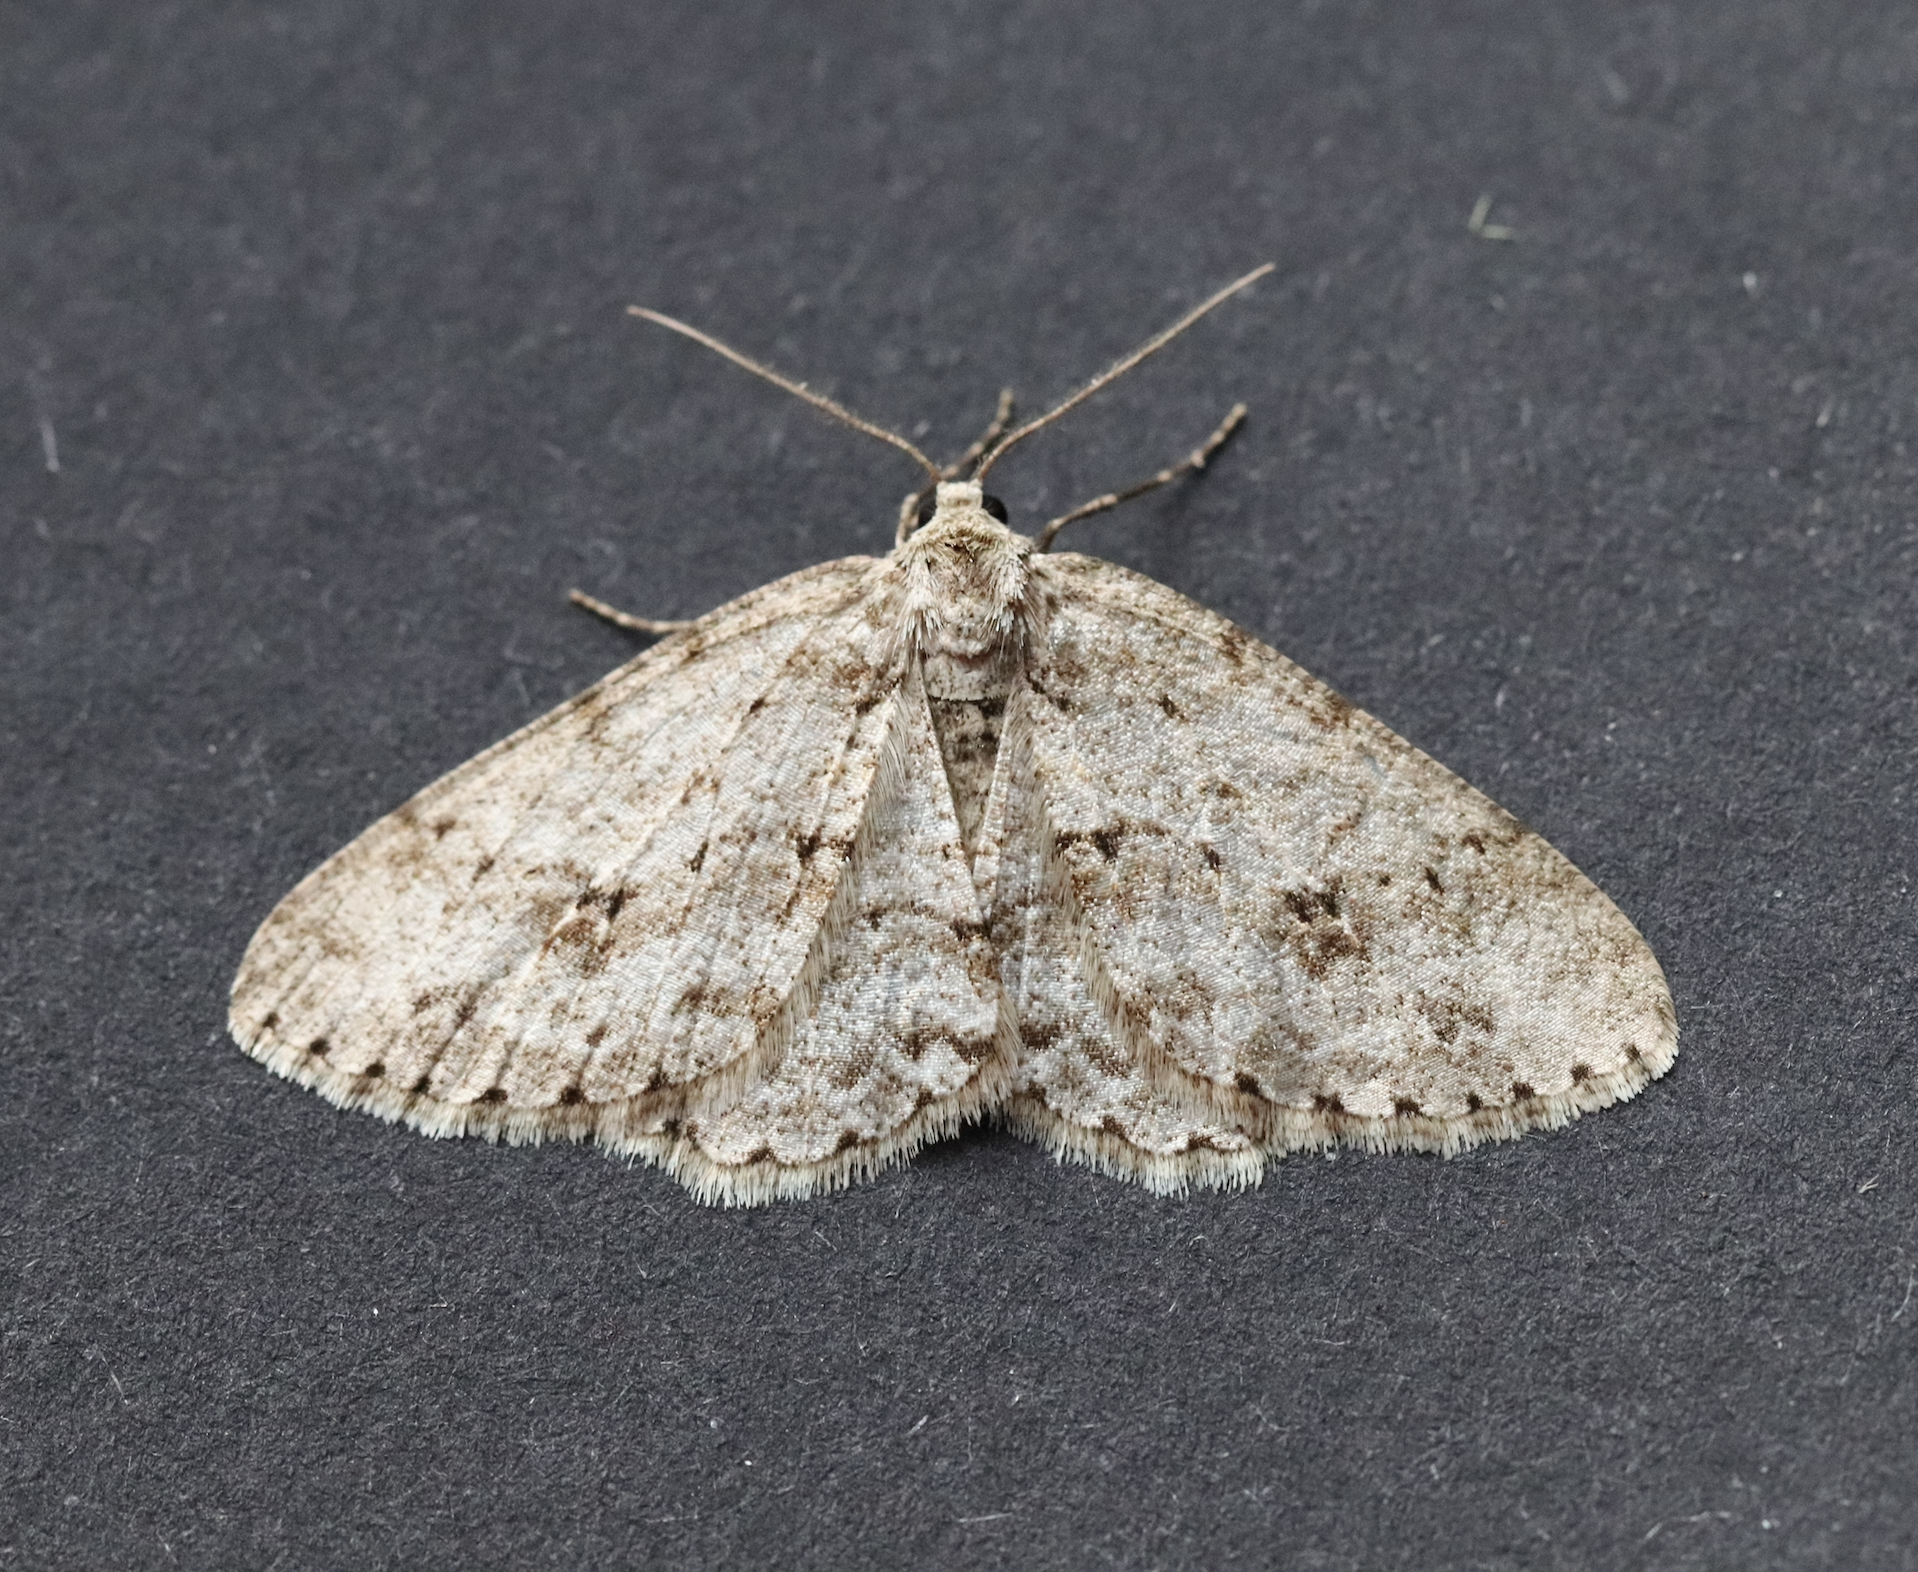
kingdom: Animalia
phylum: Arthropoda
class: Insecta
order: Lepidoptera
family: Geometridae
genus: Ectropis
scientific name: Ectropis crepuscularia
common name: Engrailed
